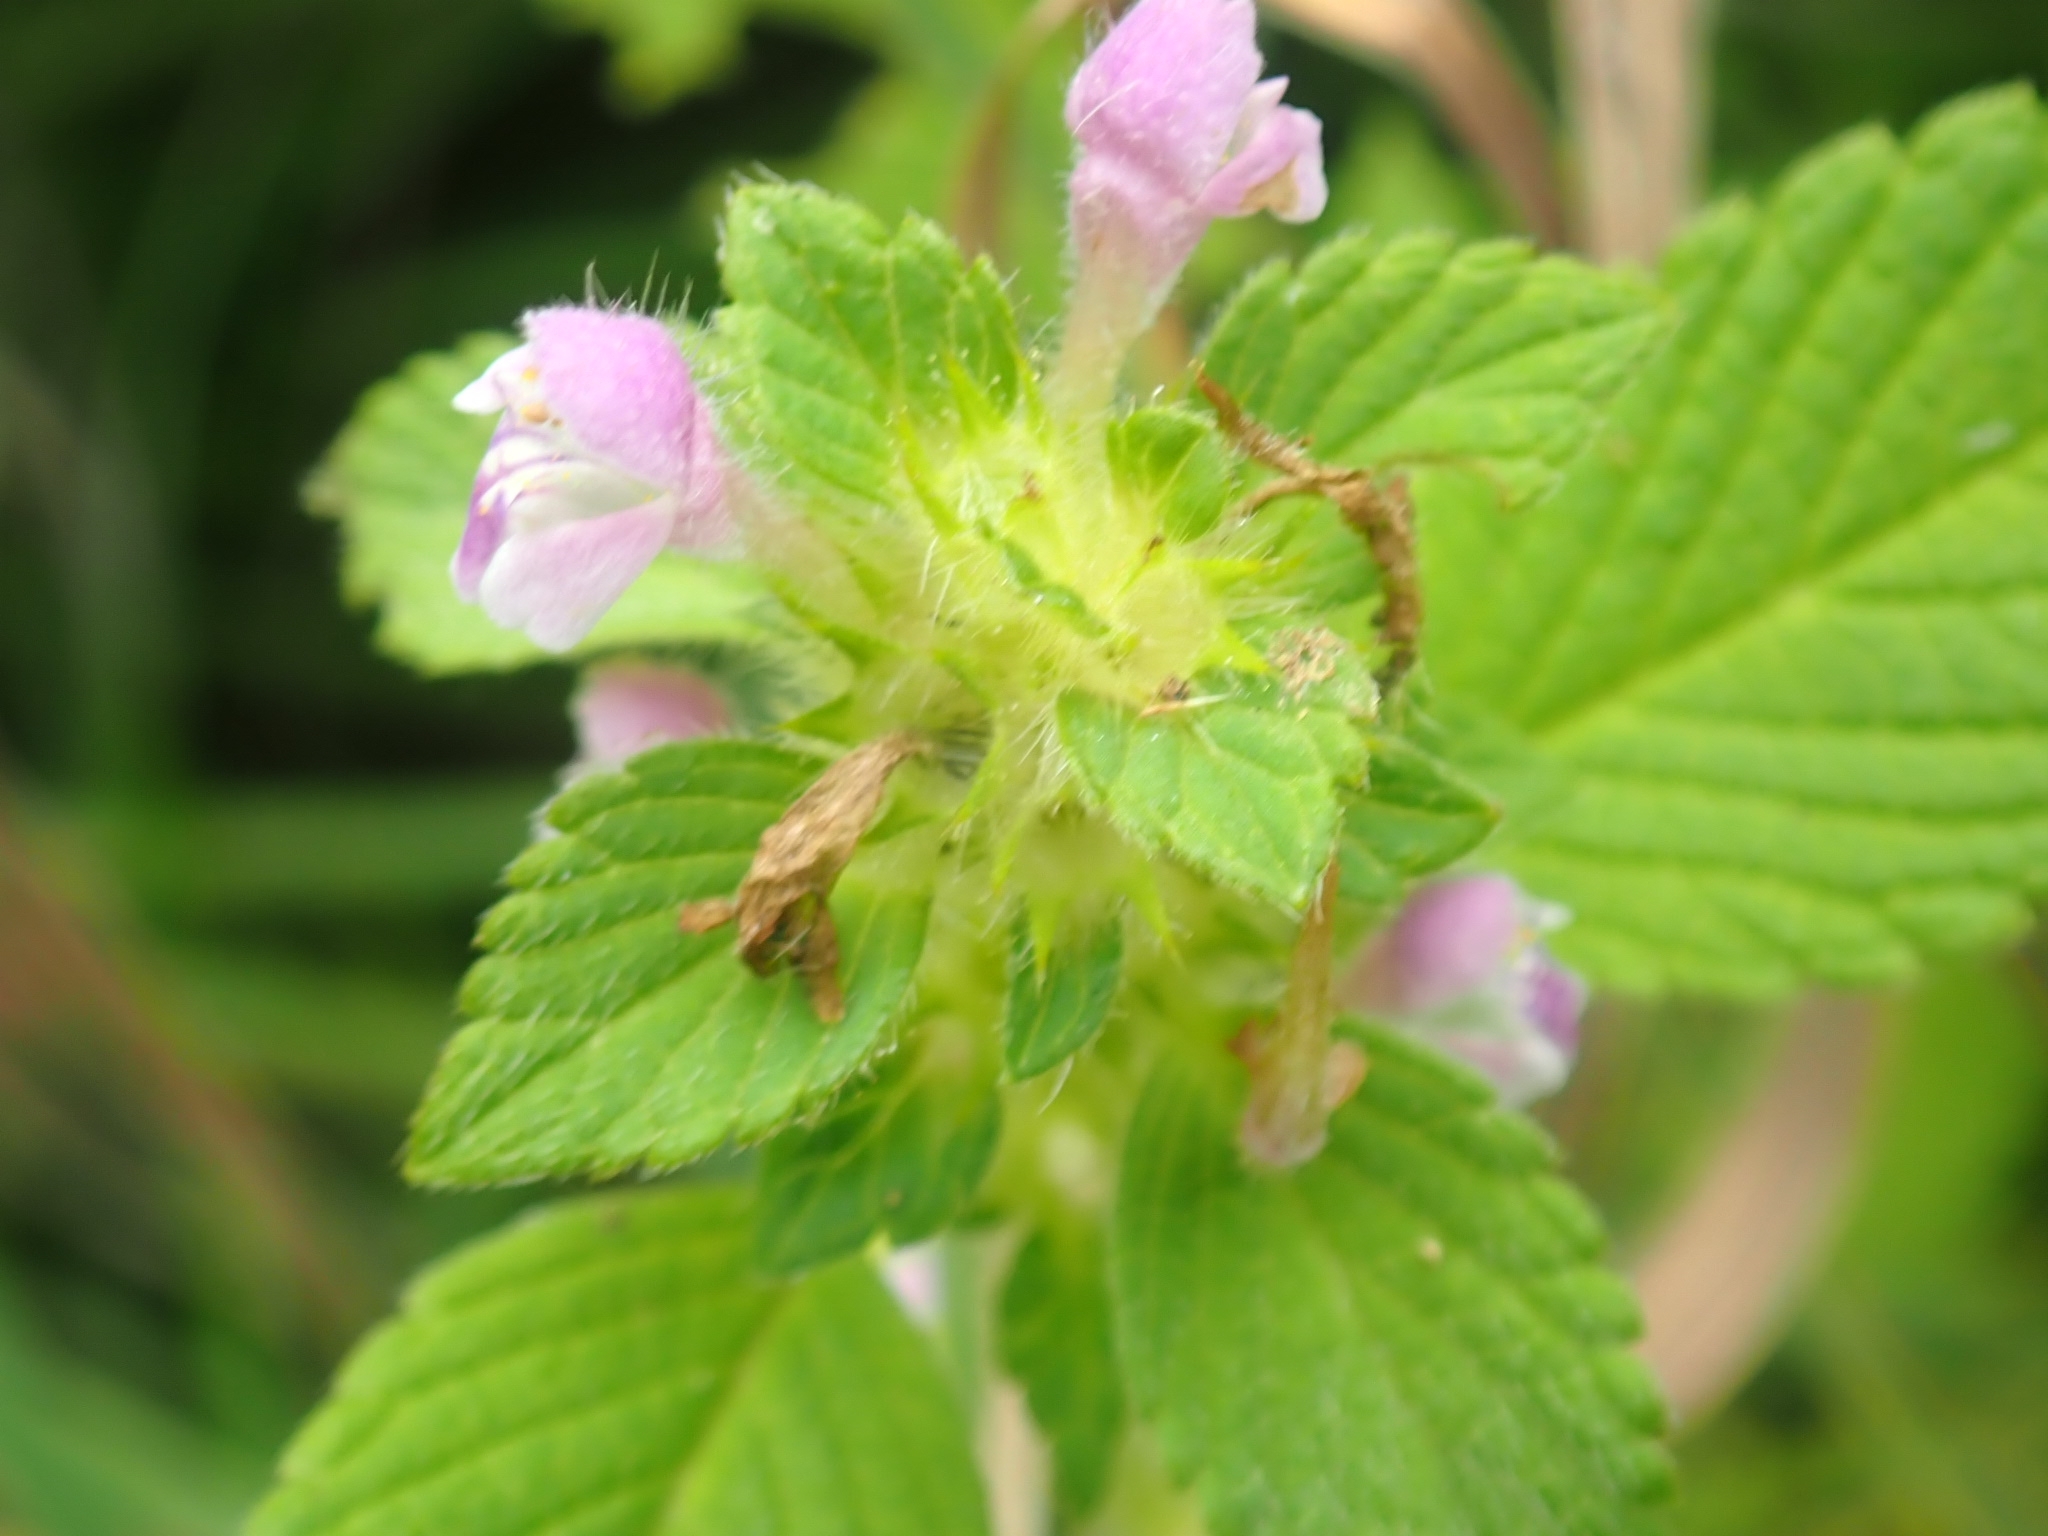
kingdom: Plantae
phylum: Tracheophyta
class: Magnoliopsida
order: Lamiales
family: Lamiaceae
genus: Galeopsis
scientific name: Galeopsis bifida
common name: Bifid hemp-nettle
